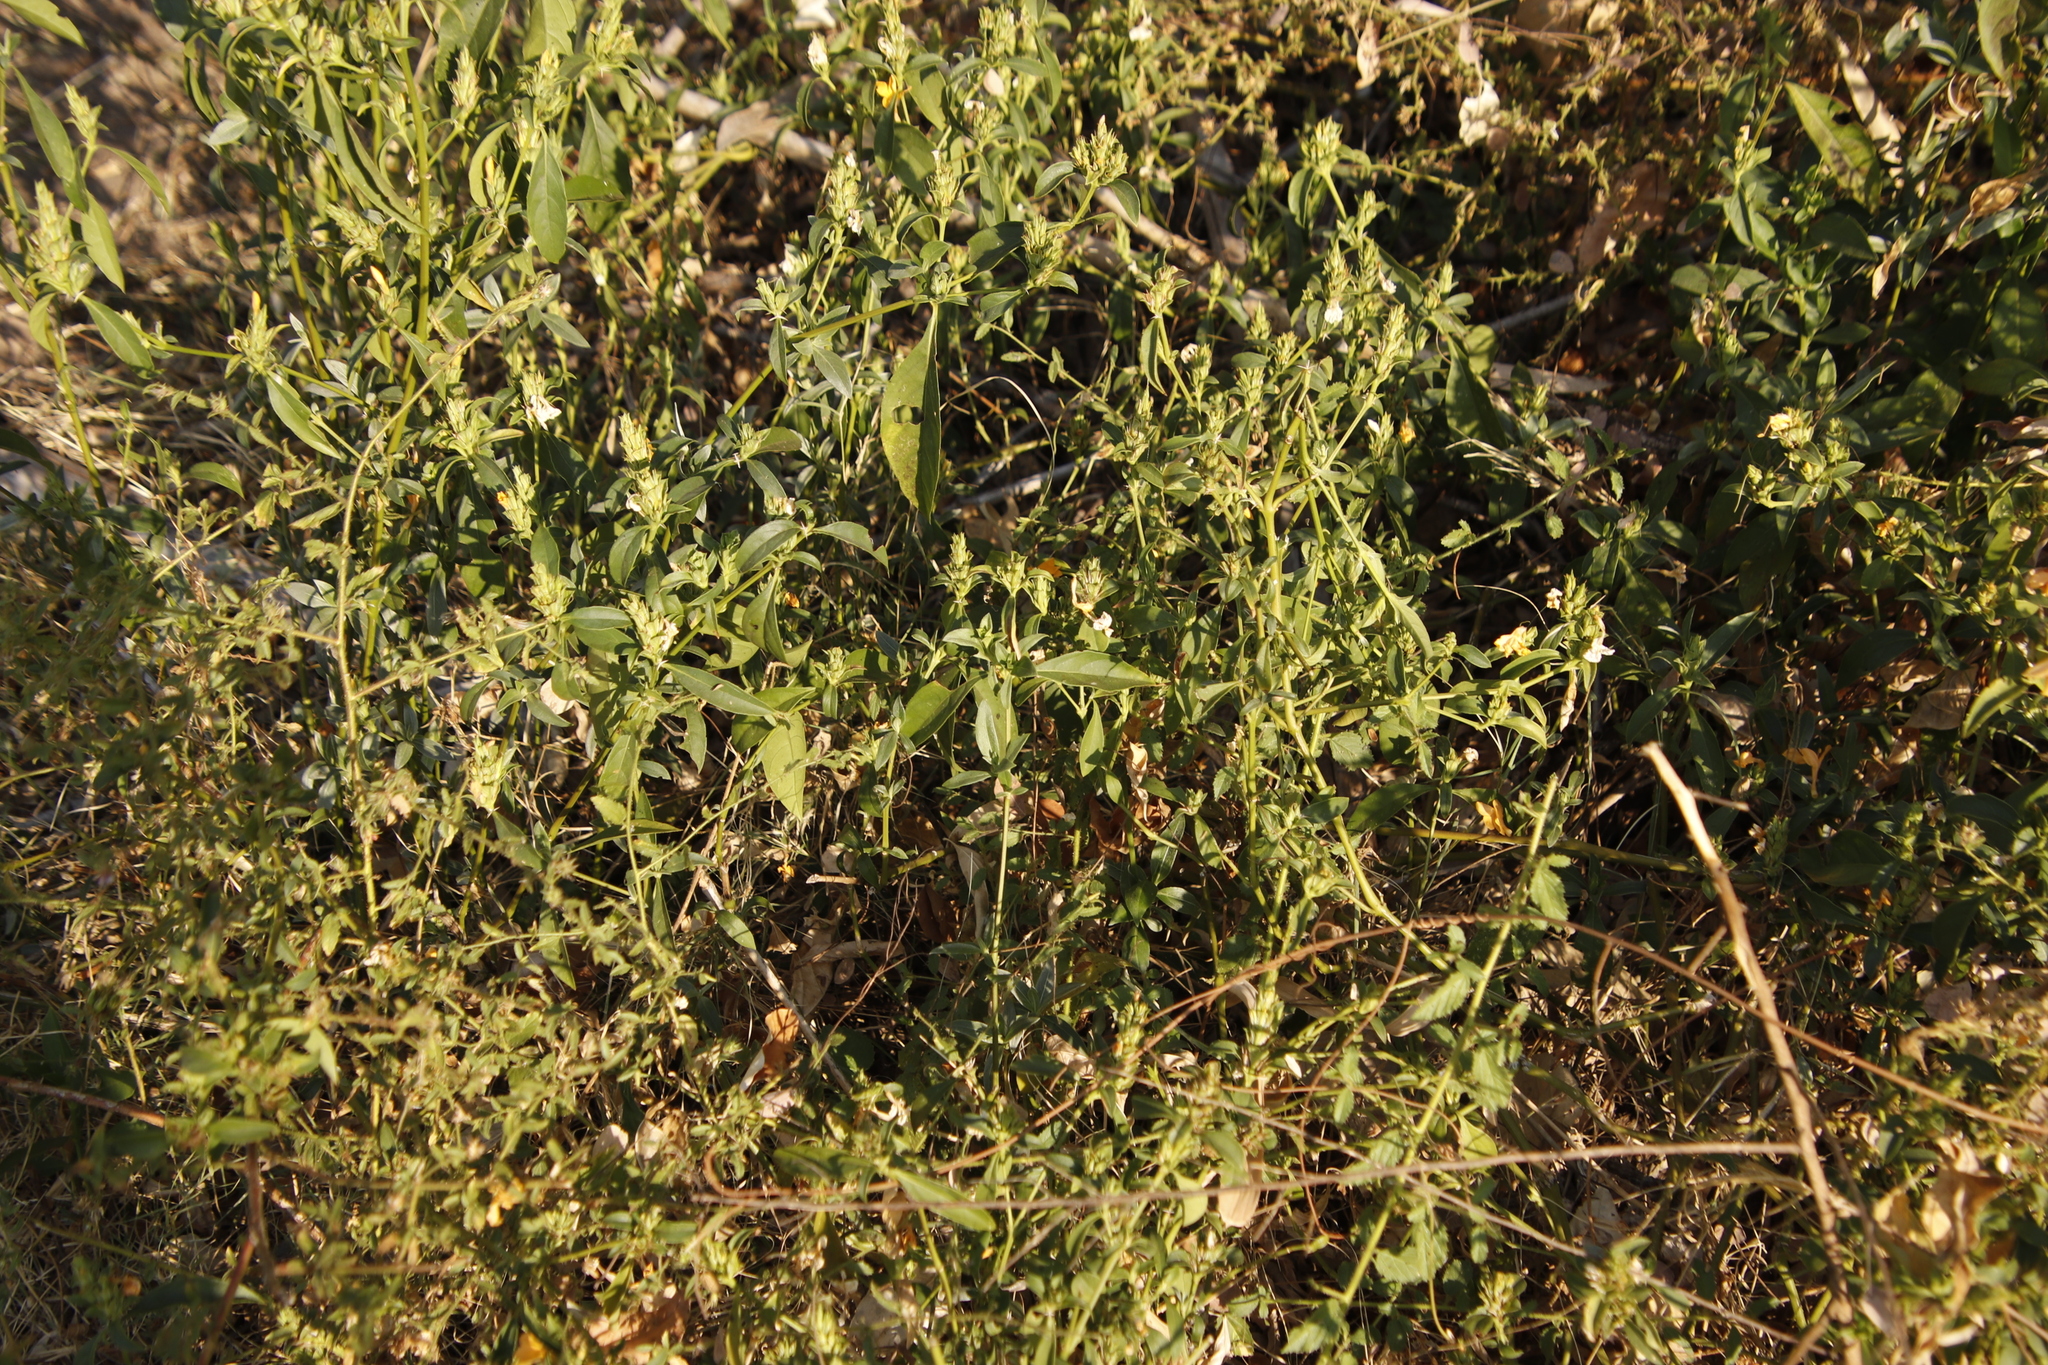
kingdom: Plantae
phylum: Tracheophyta
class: Magnoliopsida
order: Lamiales
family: Acanthaceae
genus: Barleria
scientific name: Barleria senensis
